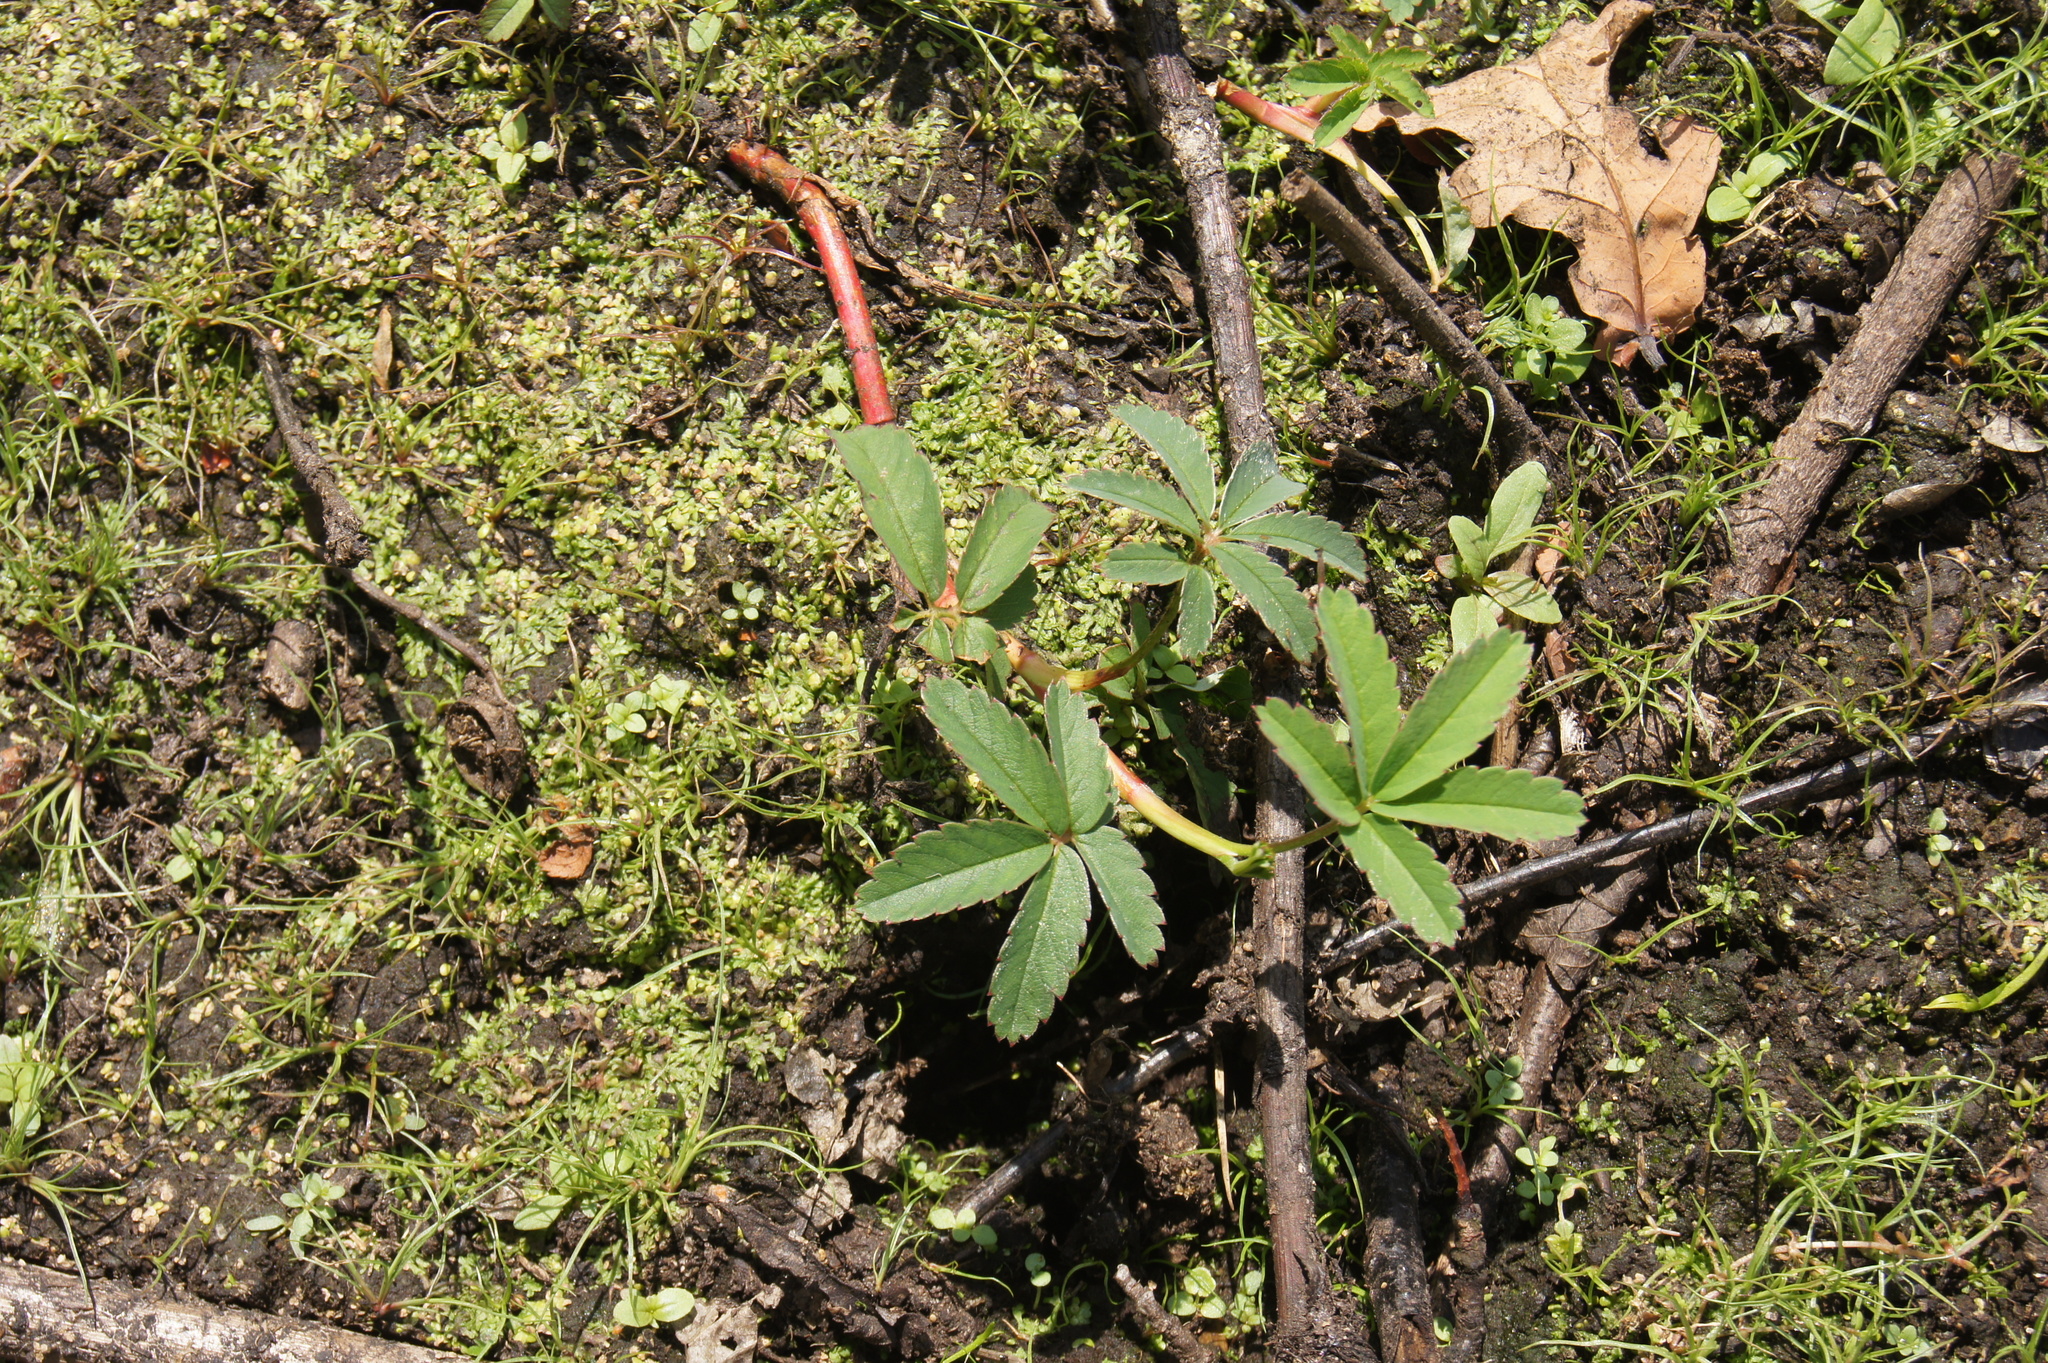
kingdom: Plantae
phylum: Tracheophyta
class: Magnoliopsida
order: Rosales
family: Rosaceae
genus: Comarum
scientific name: Comarum palustre
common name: Marsh cinquefoil
